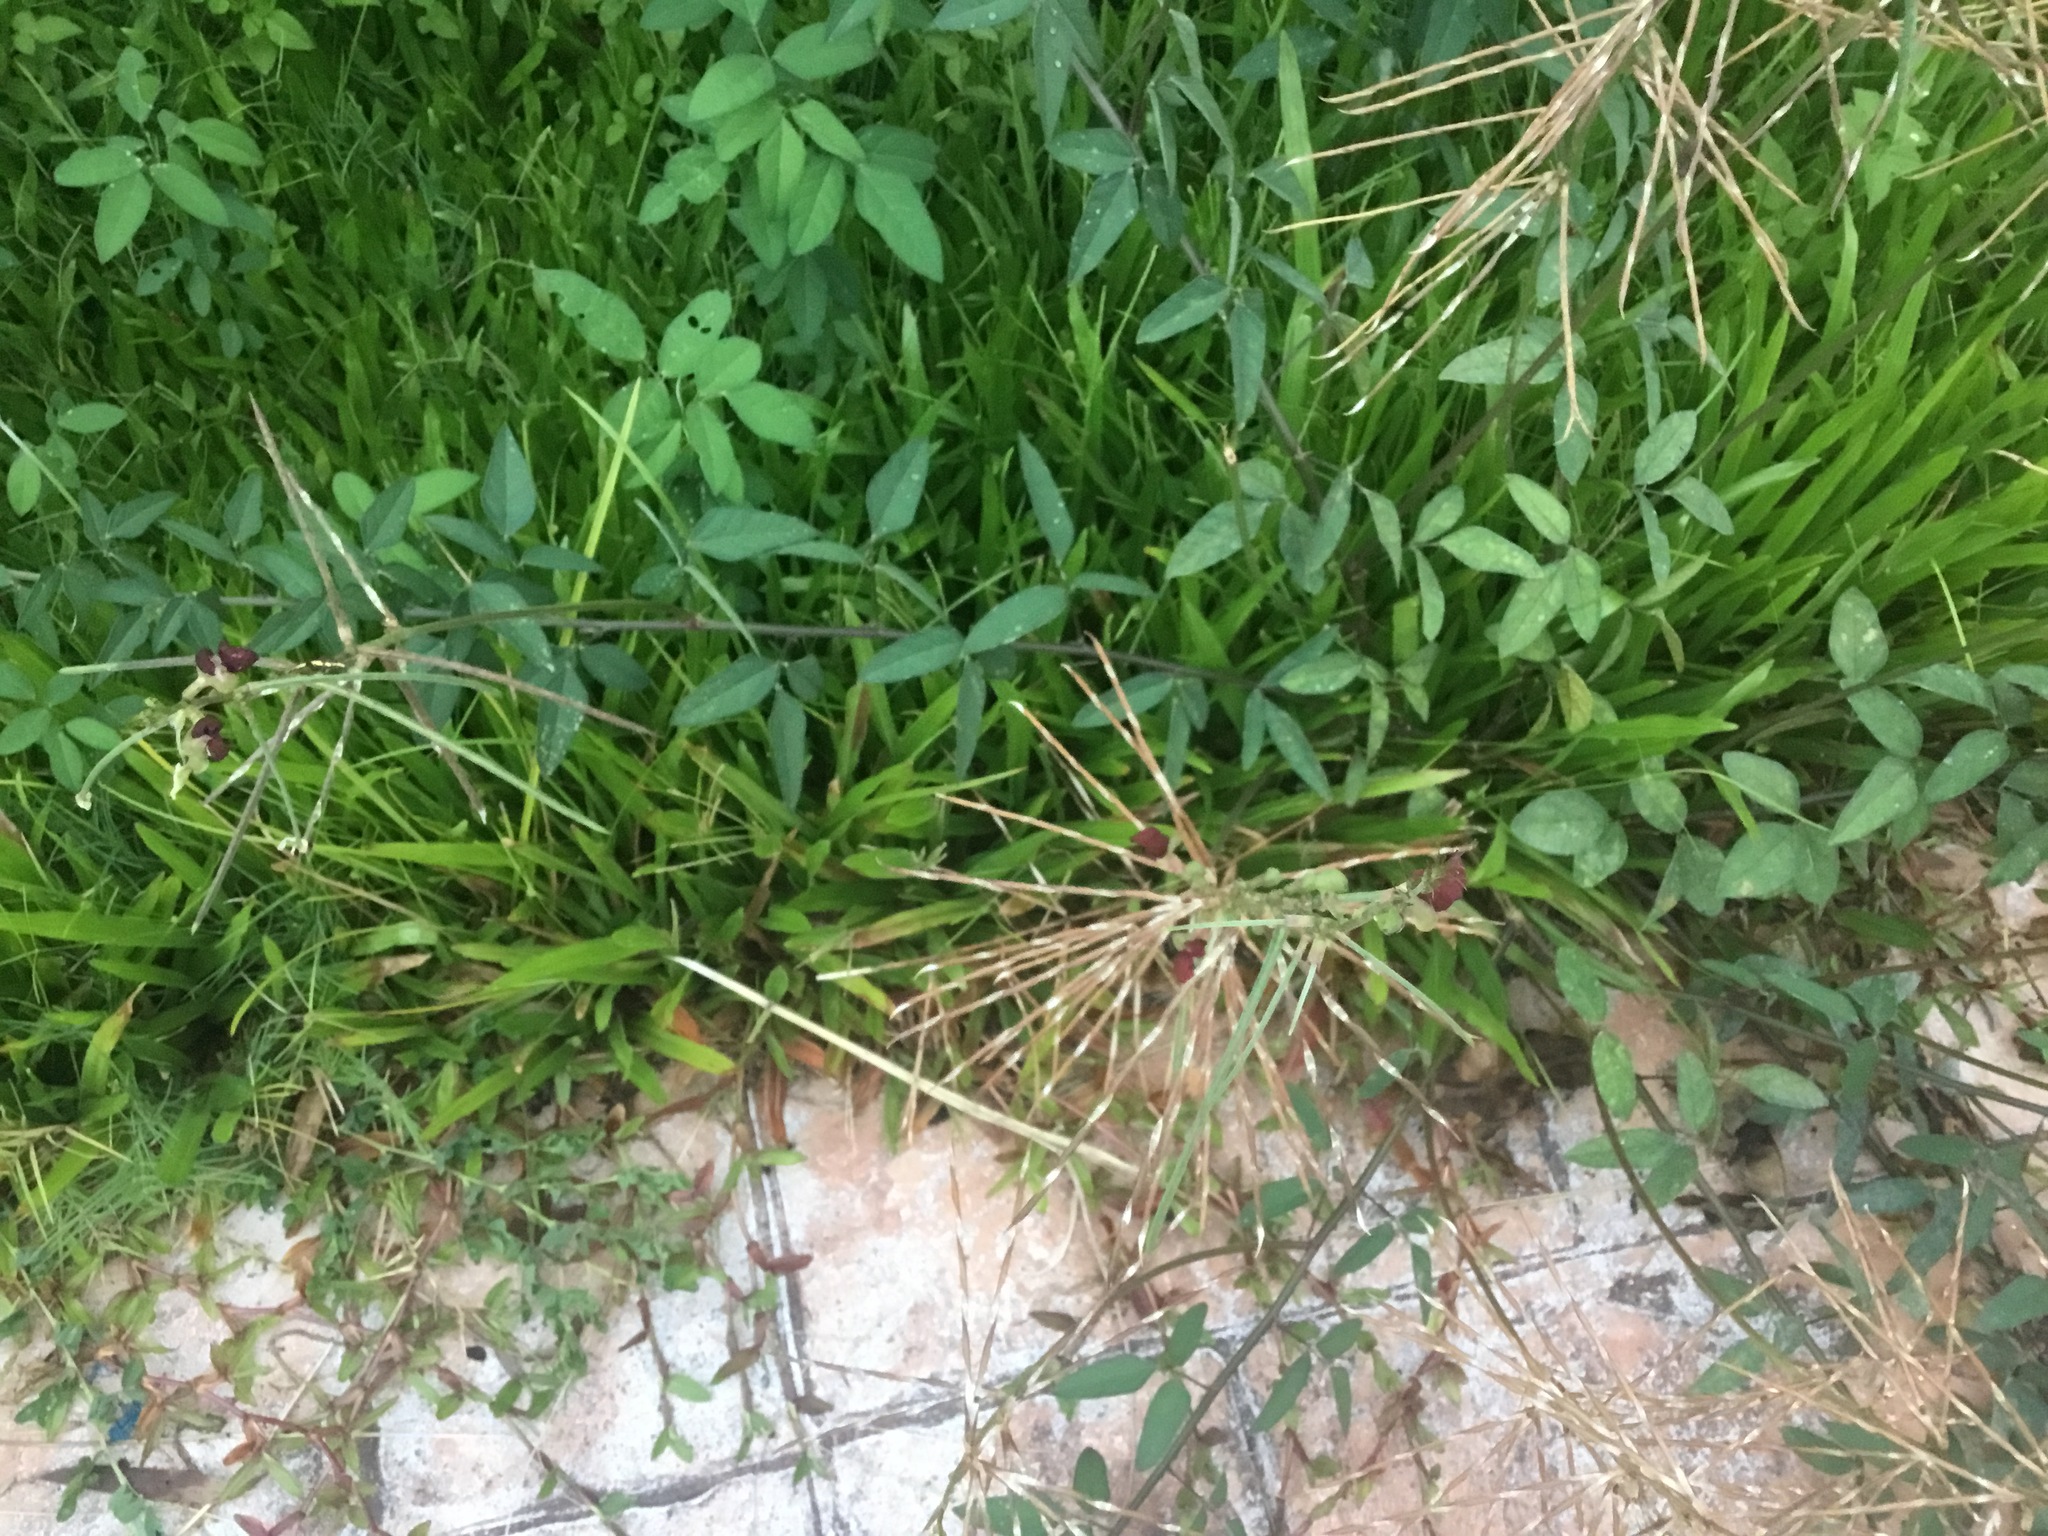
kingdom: Plantae
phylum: Tracheophyta
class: Magnoliopsida
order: Fabales
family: Fabaceae
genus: Macroptilium
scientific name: Macroptilium lathyroides
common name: Wild bushbean
